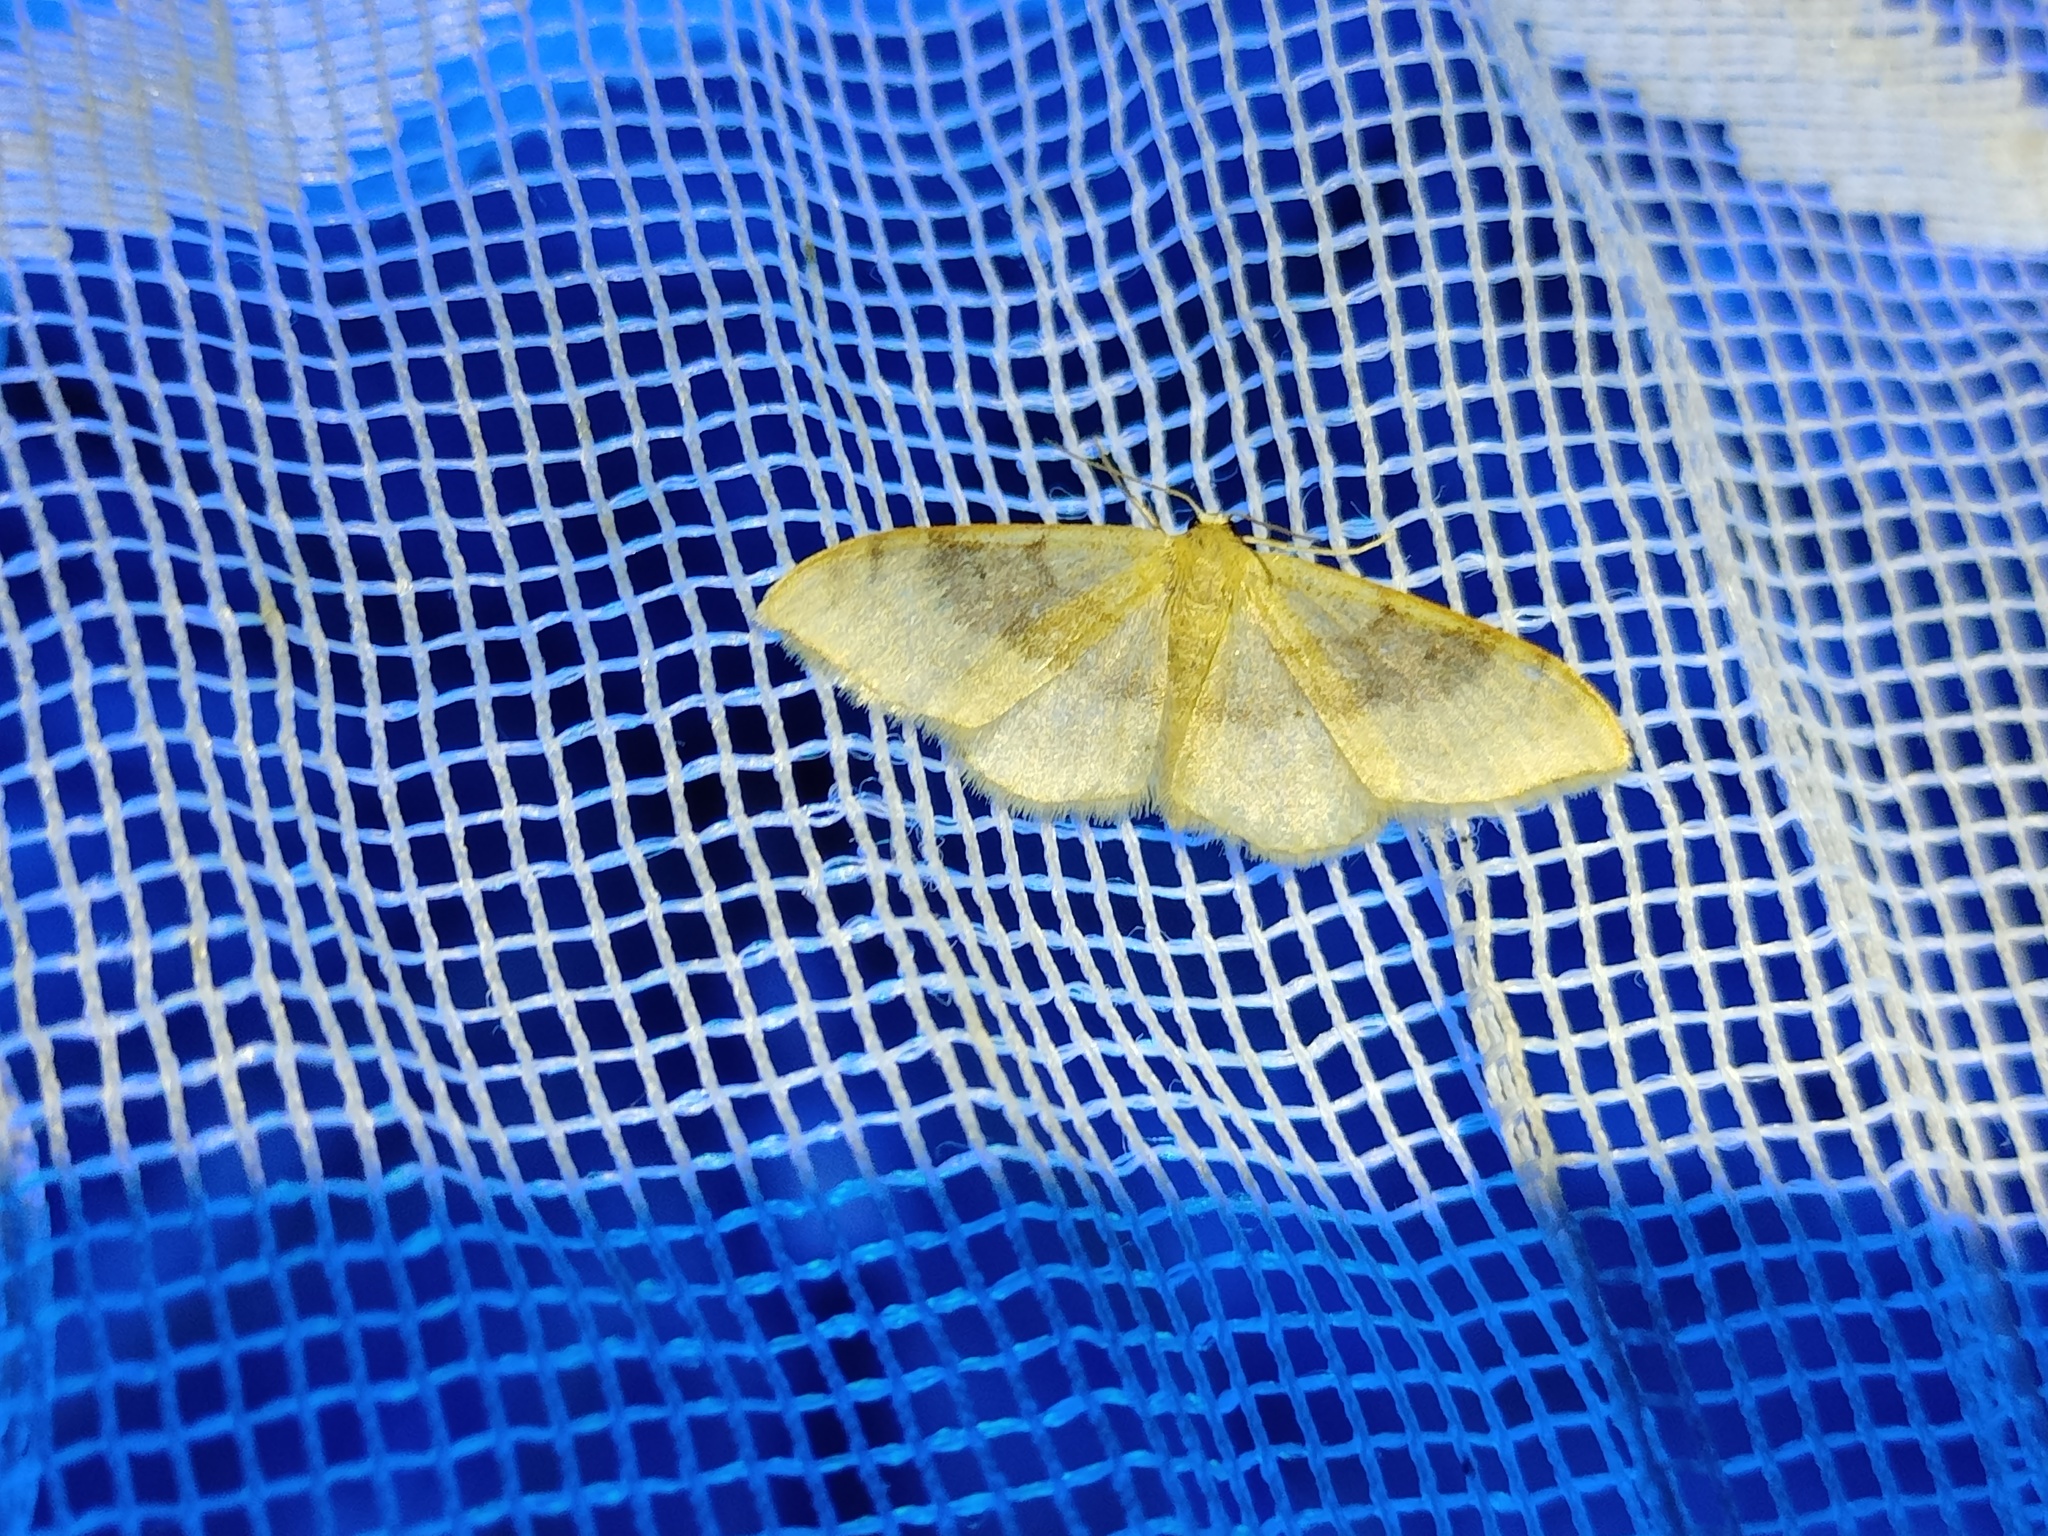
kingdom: Animalia
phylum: Arthropoda
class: Insecta
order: Lepidoptera
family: Geometridae
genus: Idaea
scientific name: Idaea degeneraria
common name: Portland ribbon wave
